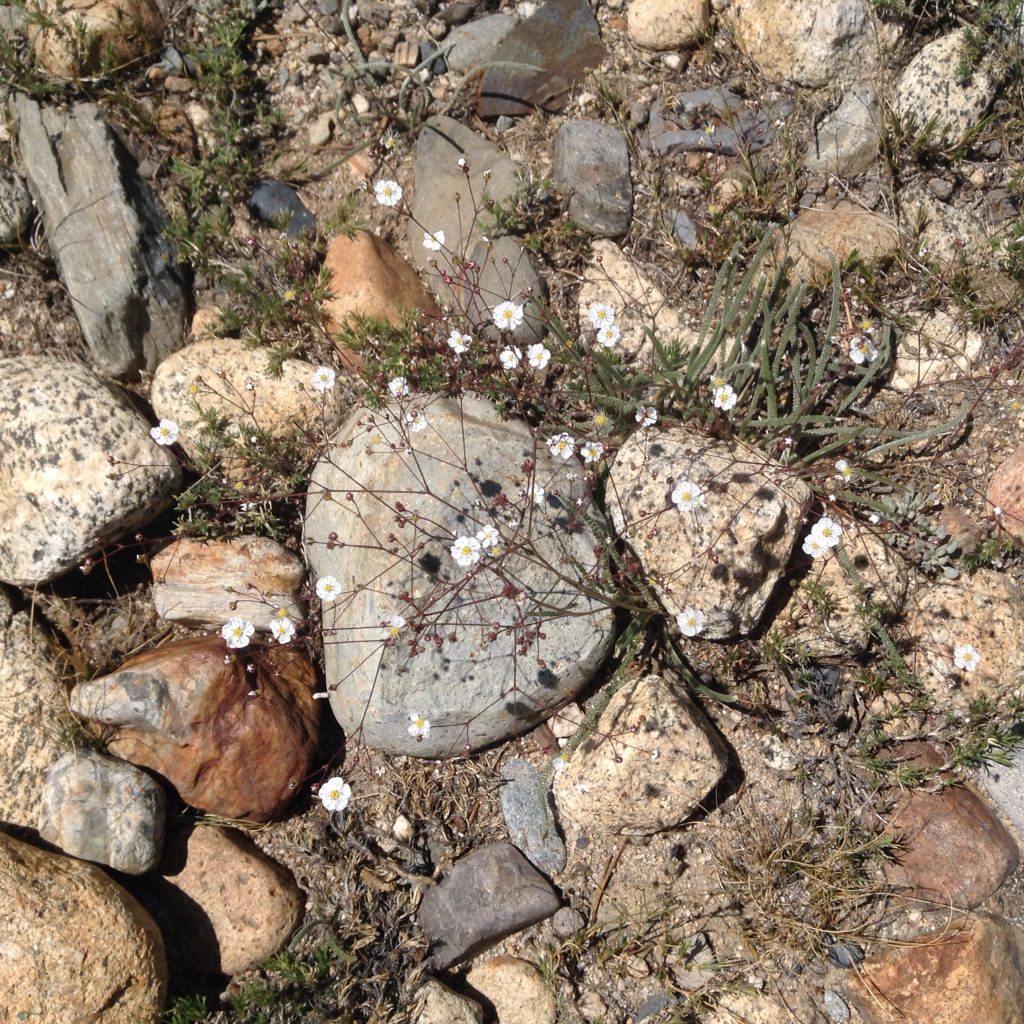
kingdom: Plantae
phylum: Tracheophyta
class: Magnoliopsida
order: Rosales
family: Rosaceae
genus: Potentilla
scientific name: Potentilla santolinoides
